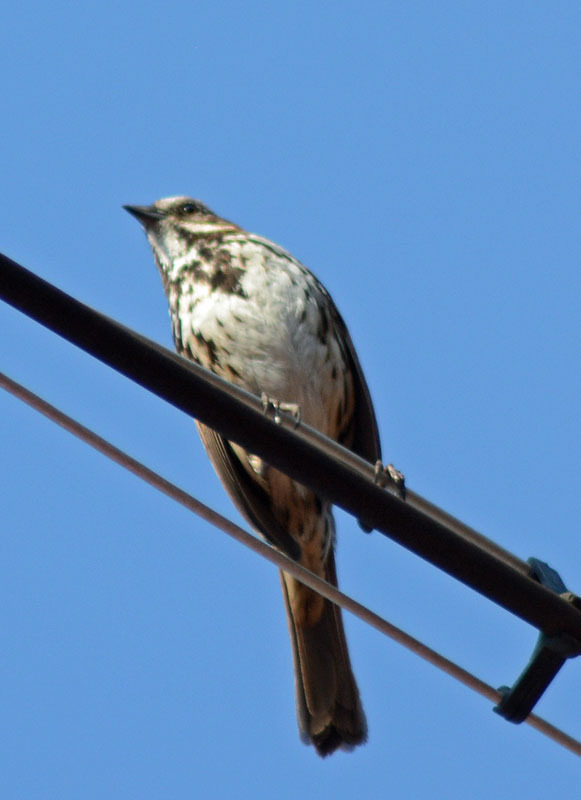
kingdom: Animalia
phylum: Chordata
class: Aves
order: Passeriformes
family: Passerellidae
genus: Melospiza
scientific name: Melospiza melodia
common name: Song sparrow
